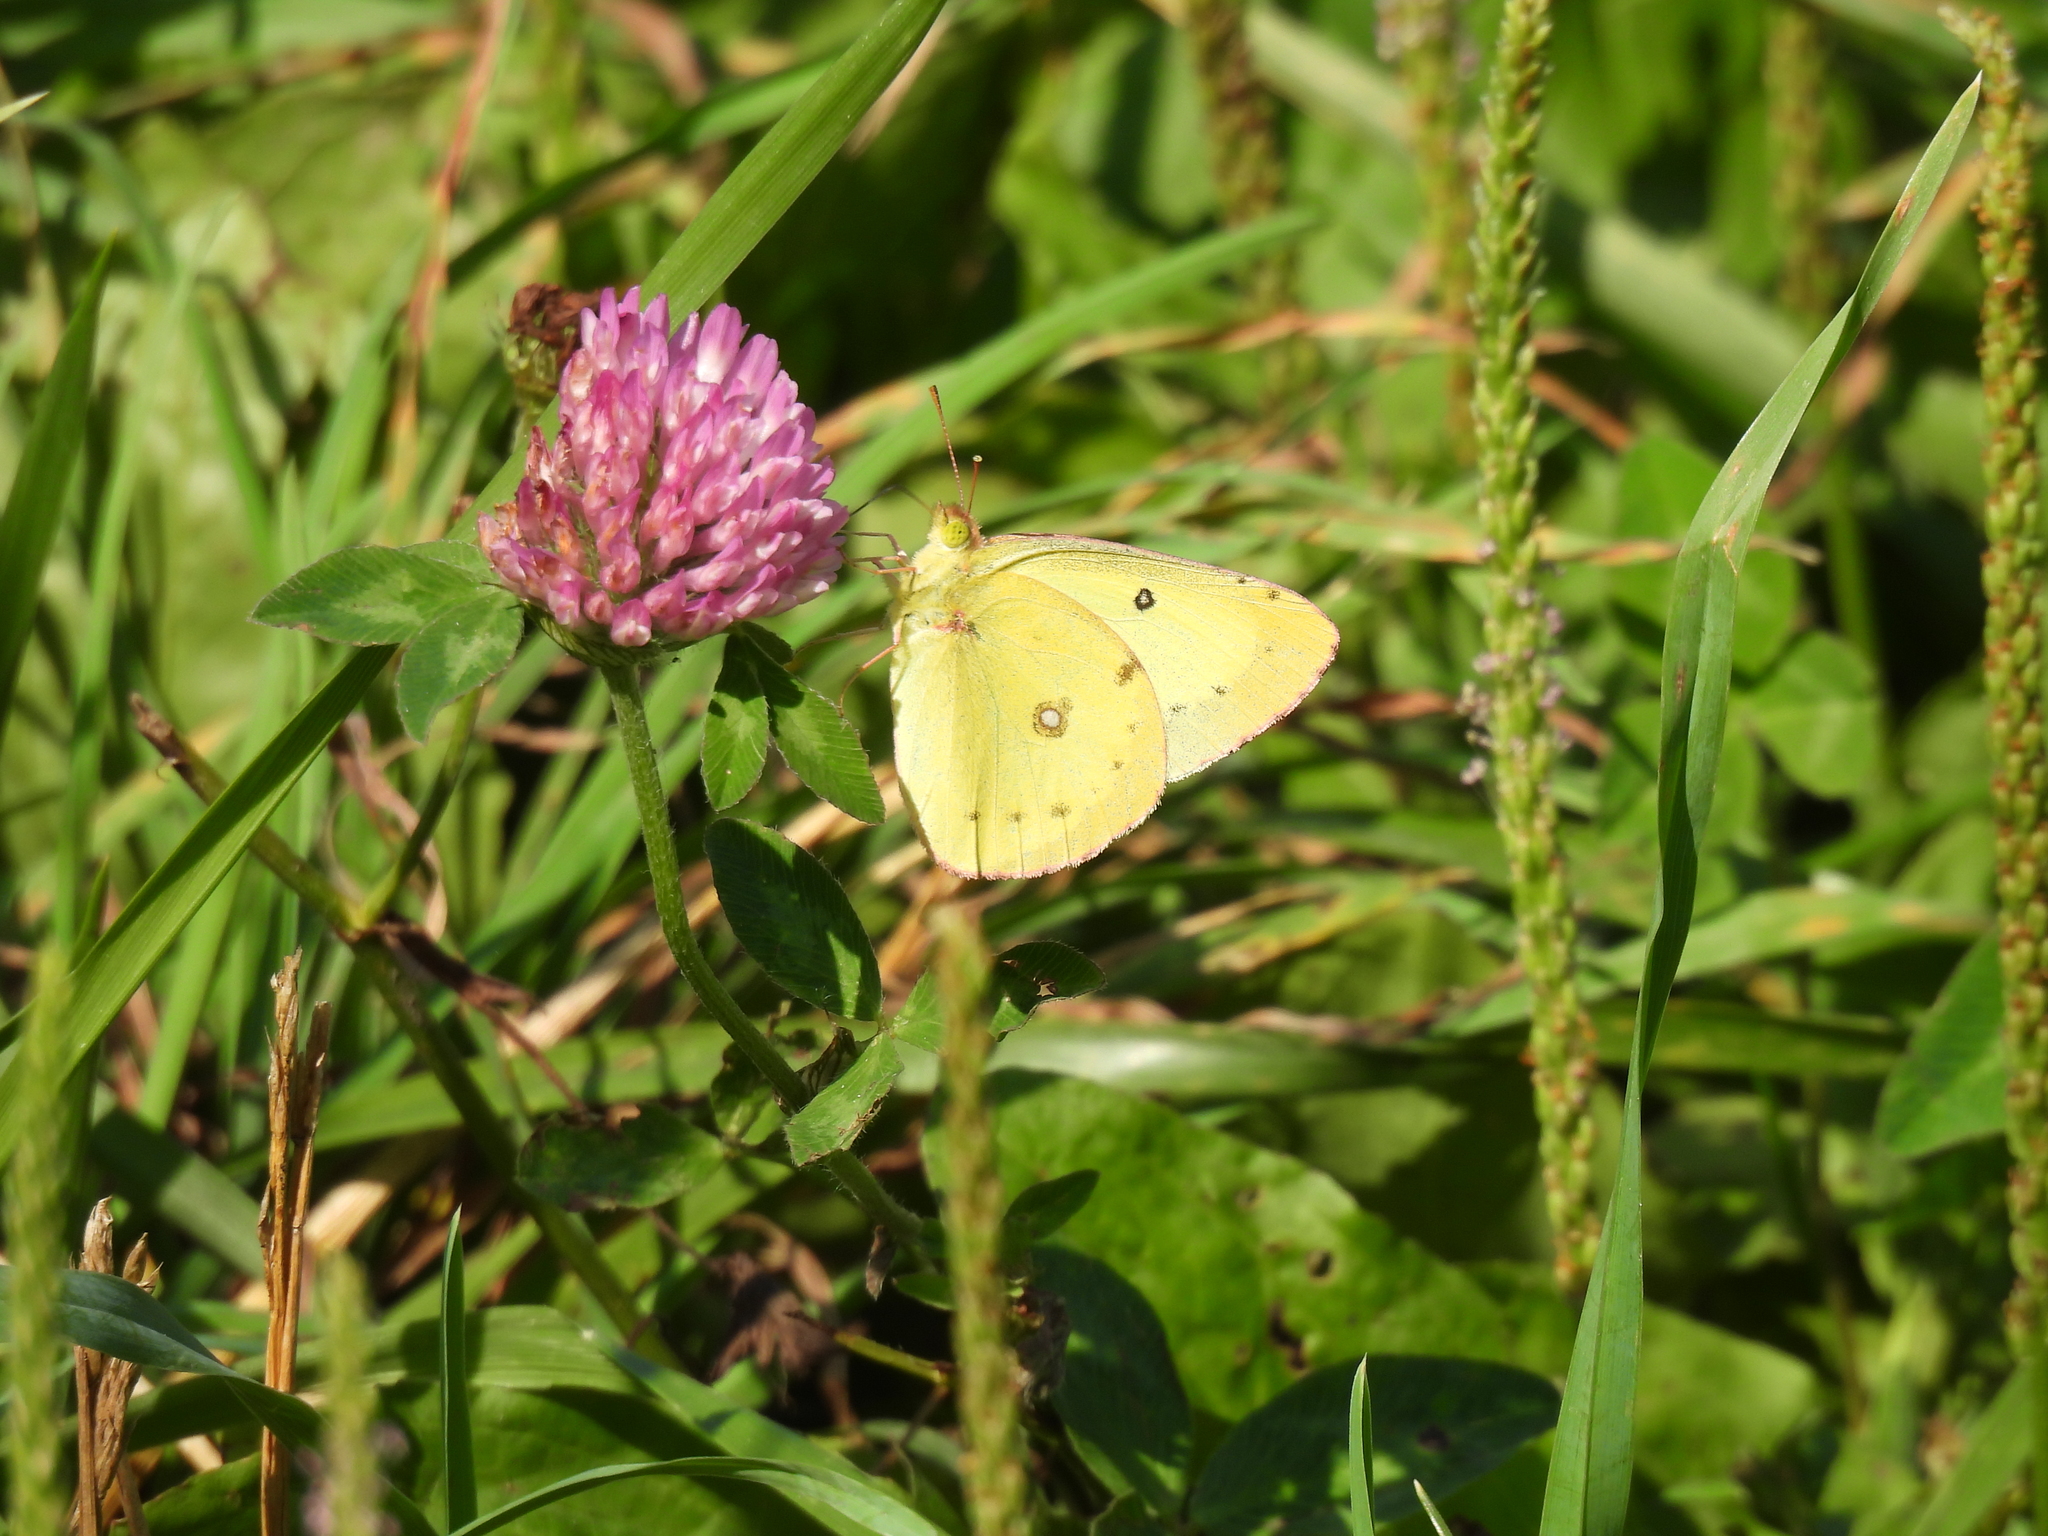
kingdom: Animalia
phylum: Arthropoda
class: Insecta
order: Lepidoptera
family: Pieridae
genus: Colias
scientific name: Colias philodice
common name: Clouded sulphur
